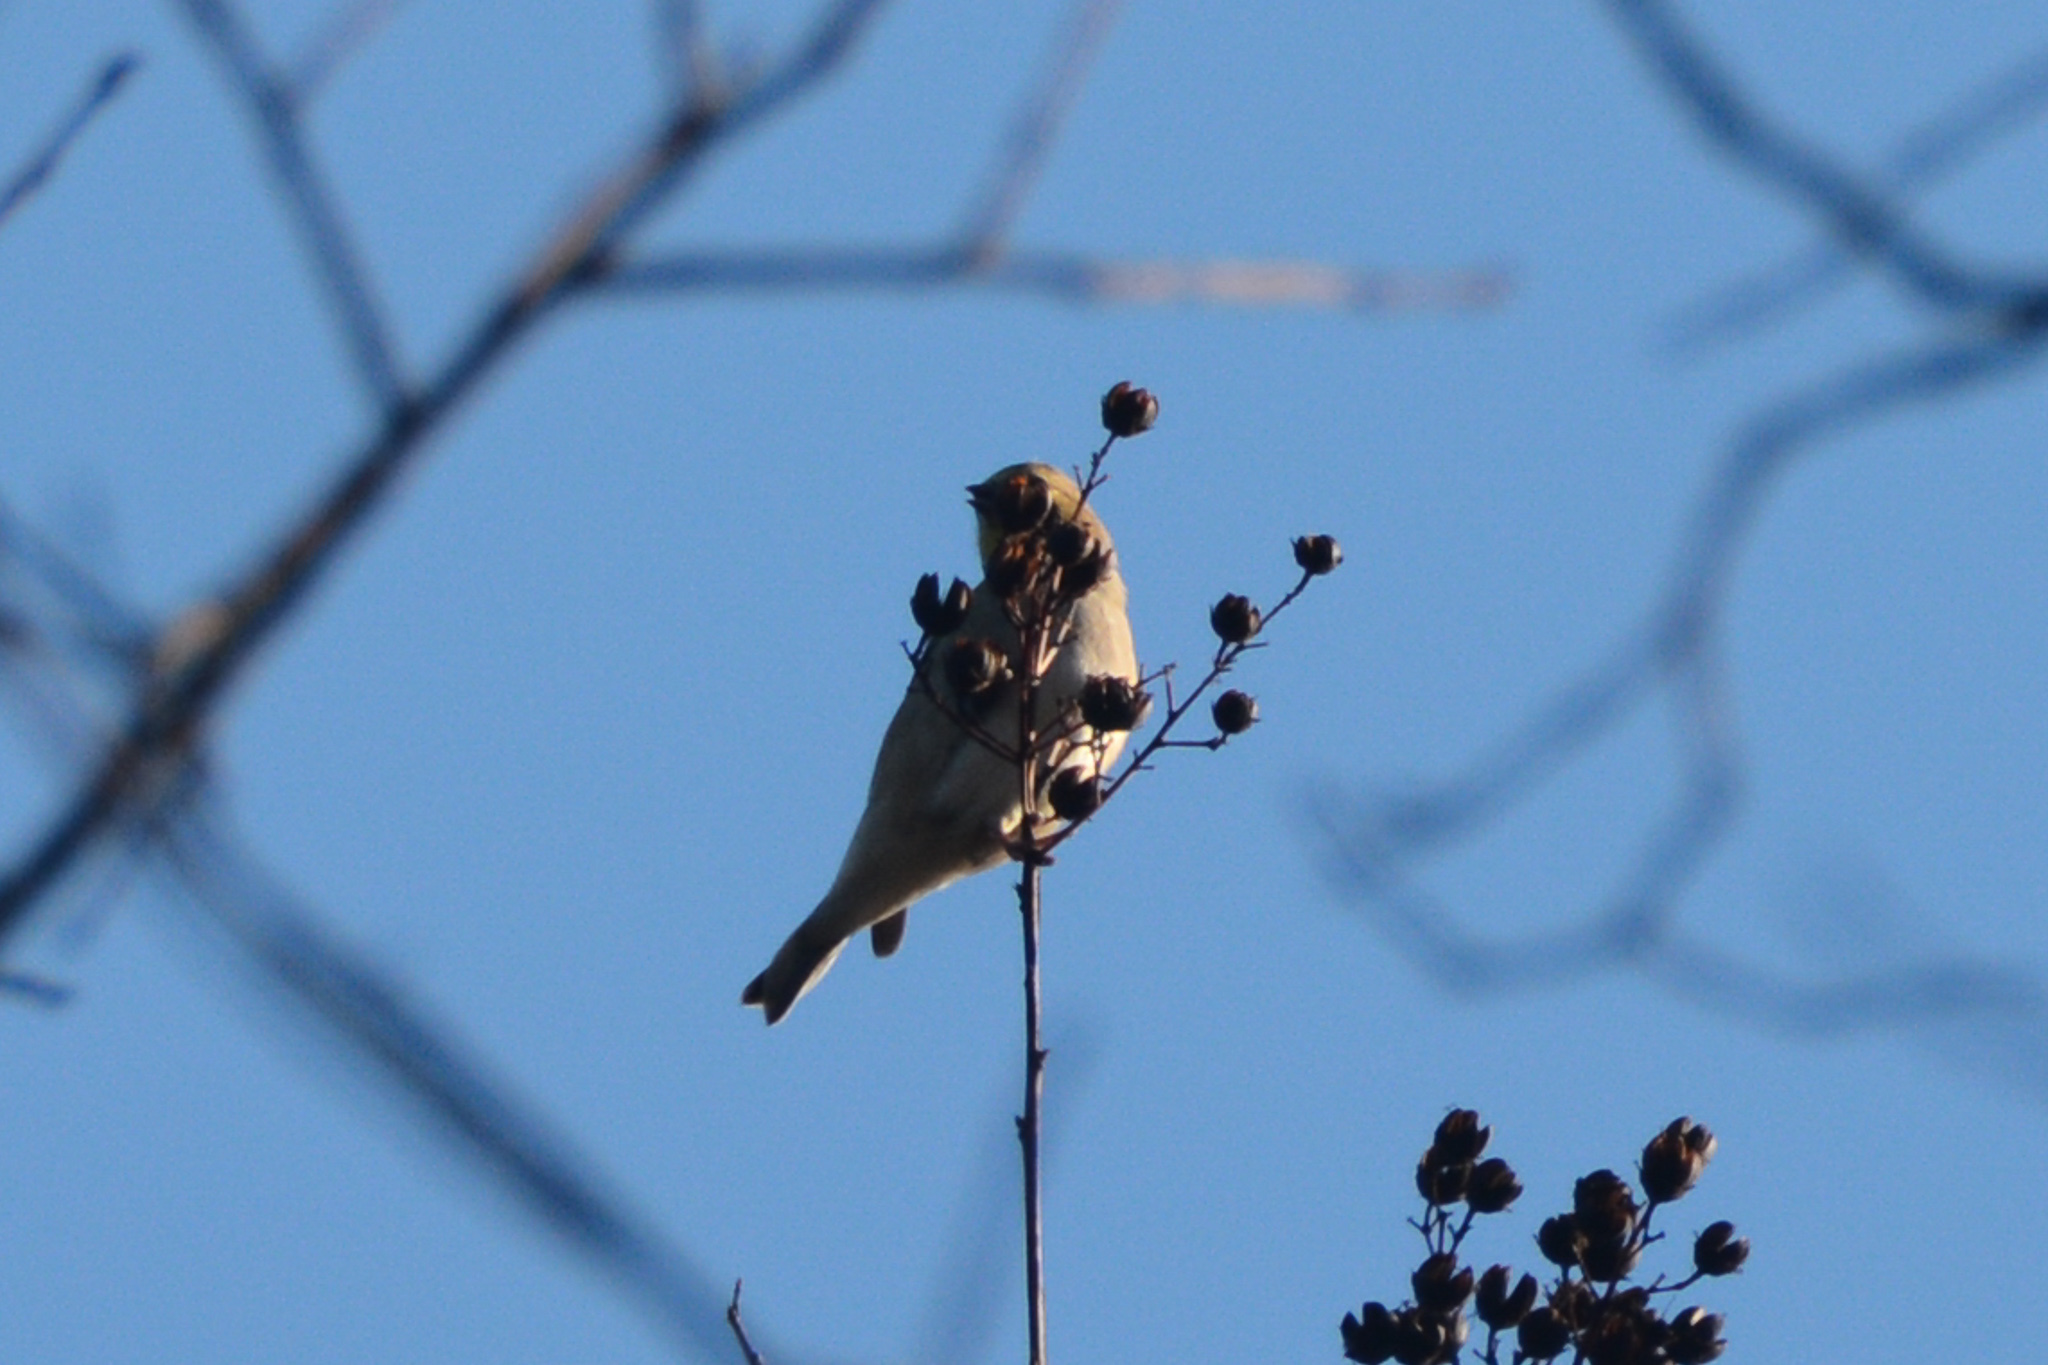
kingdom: Animalia
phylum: Chordata
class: Aves
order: Passeriformes
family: Fringillidae
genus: Spinus
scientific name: Spinus tristis
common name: American goldfinch
